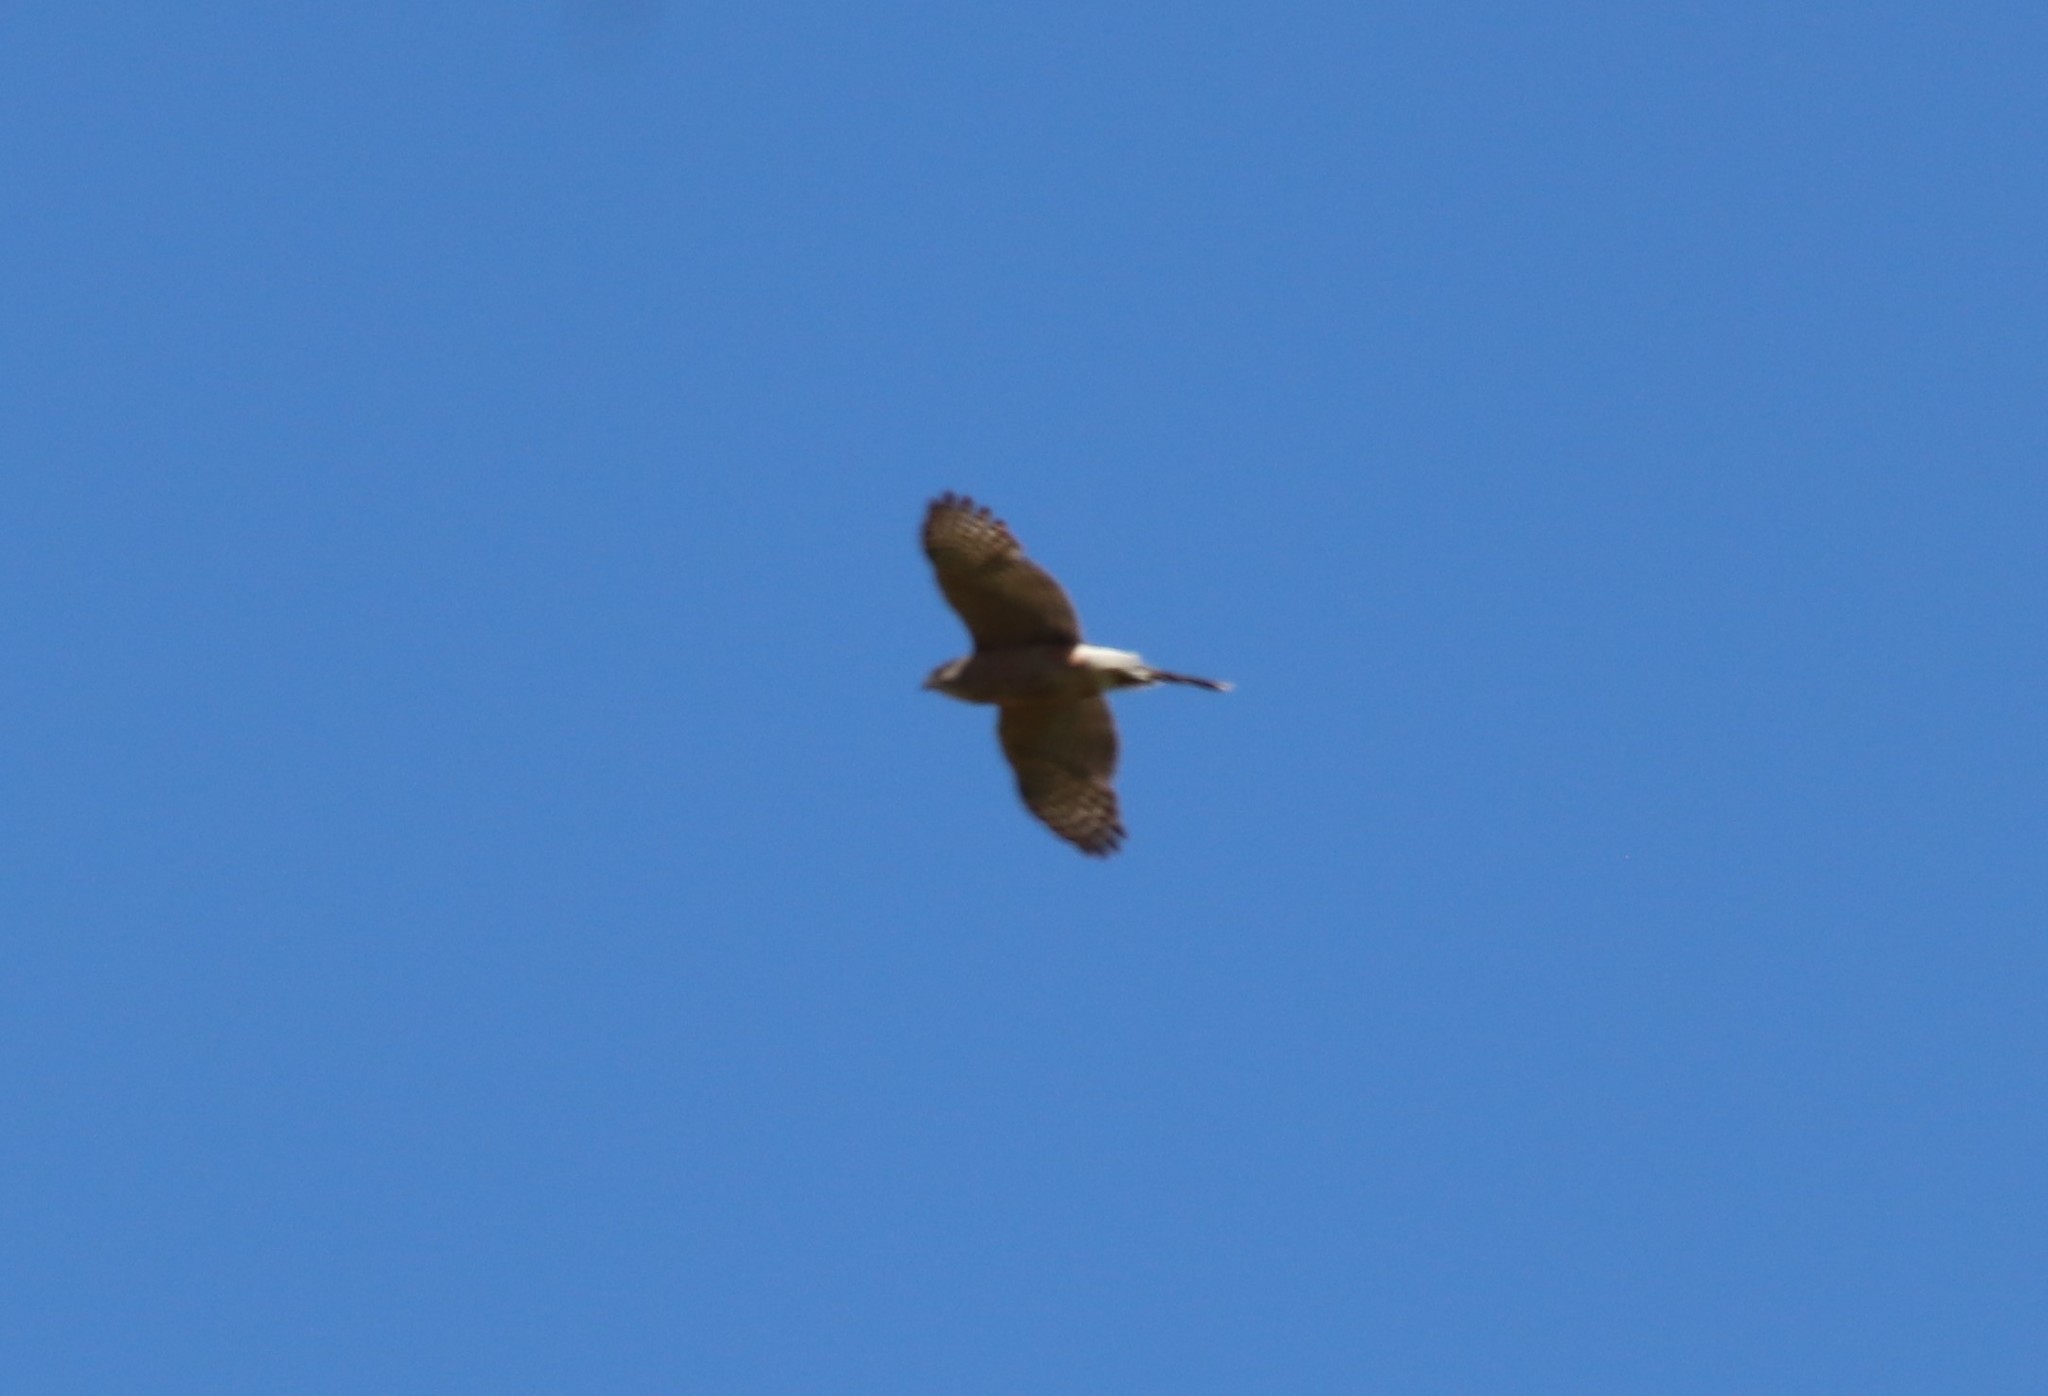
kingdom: Animalia
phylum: Chordata
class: Aves
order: Accipitriformes
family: Accipitridae
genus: Accipiter
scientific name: Accipiter cooperii
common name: Cooper's hawk
